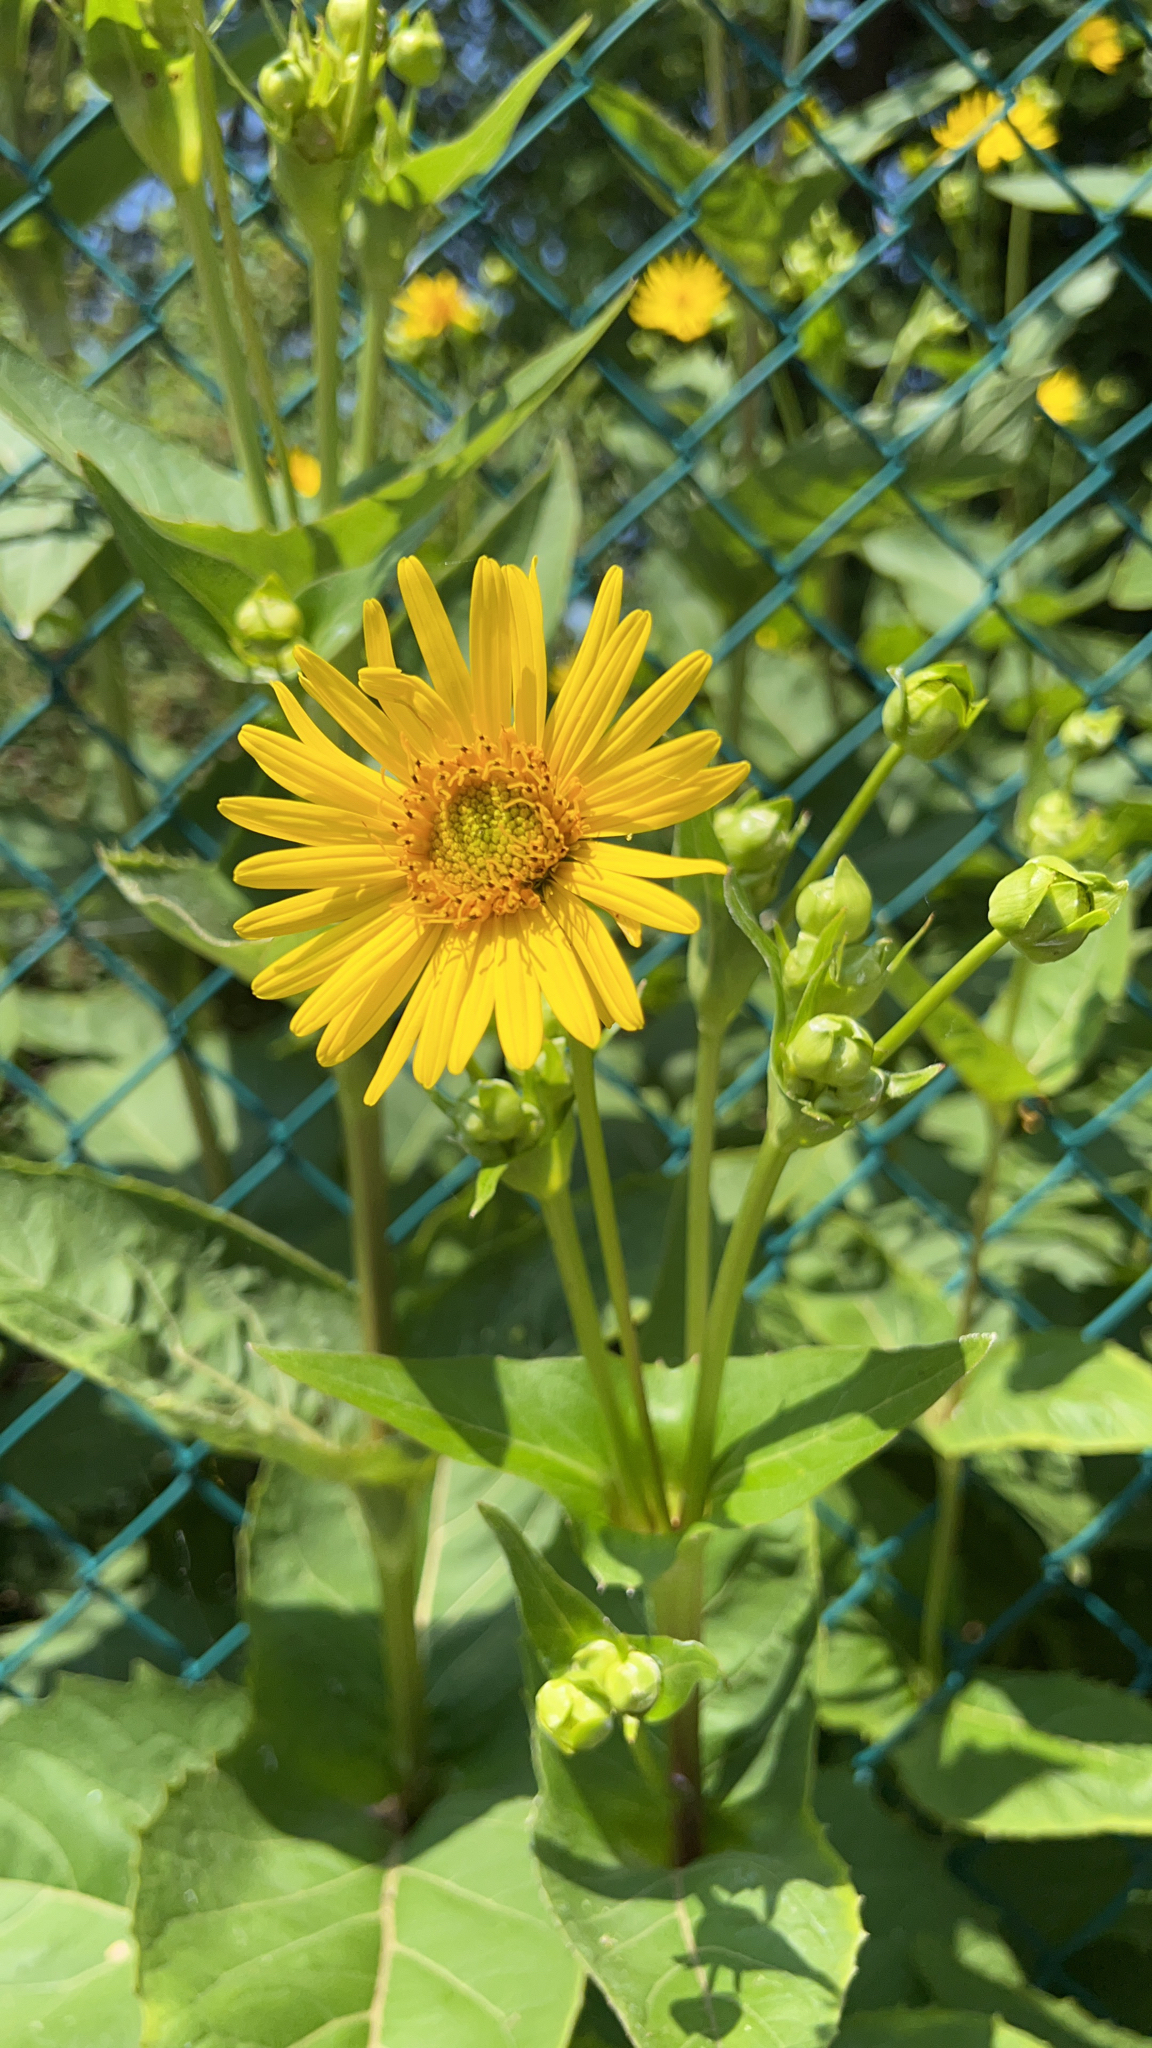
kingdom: Plantae
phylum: Tracheophyta
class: Magnoliopsida
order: Asterales
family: Asteraceae
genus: Silphium
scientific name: Silphium perfoliatum
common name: Cup-plant
